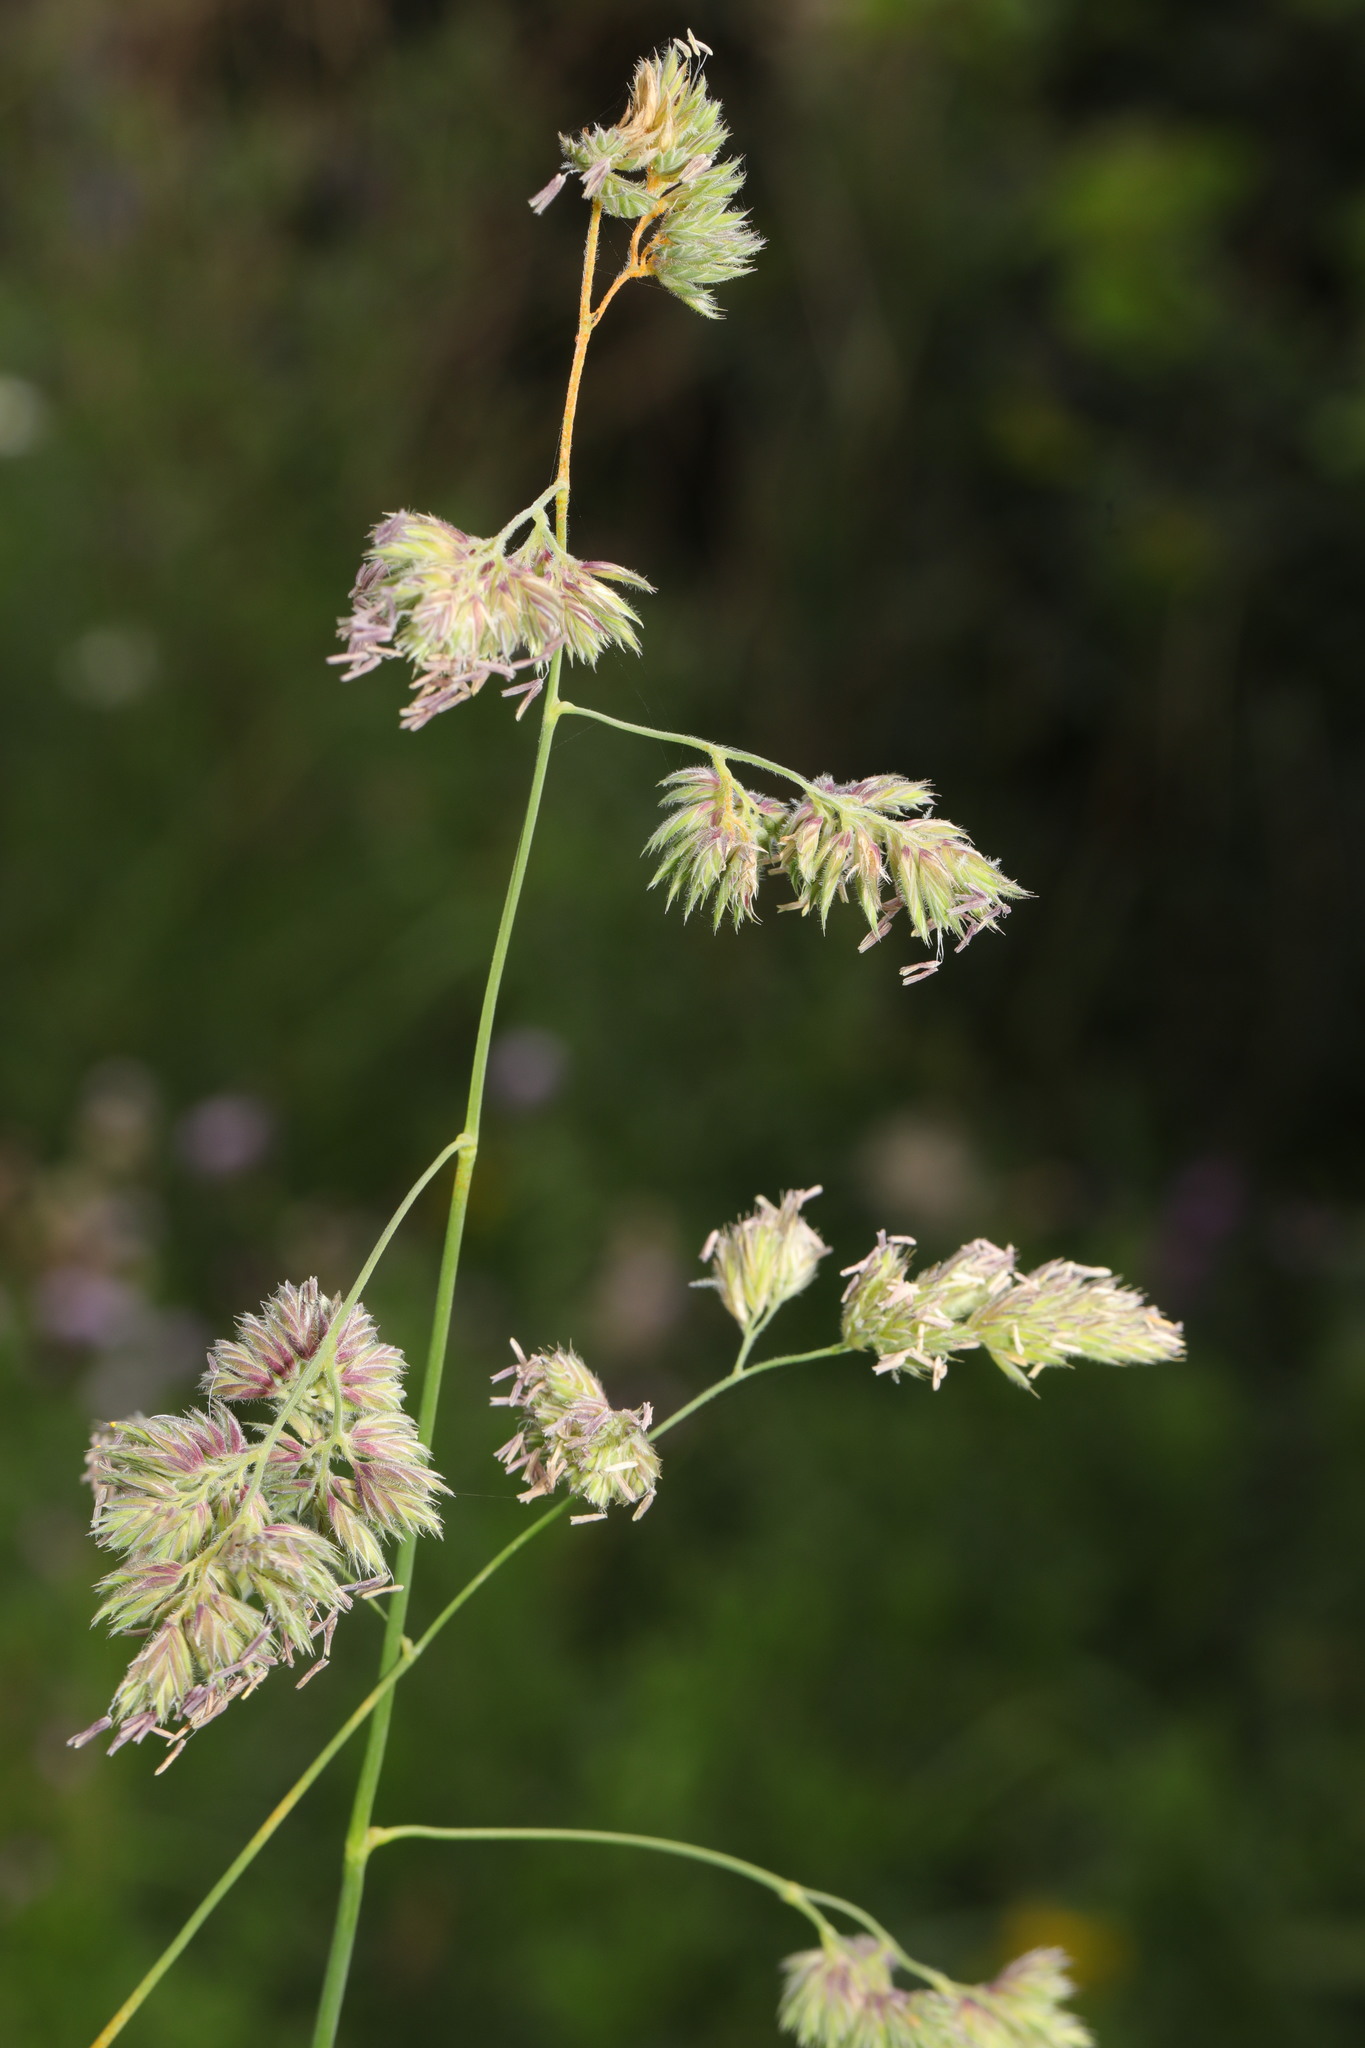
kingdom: Plantae
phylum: Tracheophyta
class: Liliopsida
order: Poales
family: Poaceae
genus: Dactylis
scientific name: Dactylis glomerata
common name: Orchardgrass
